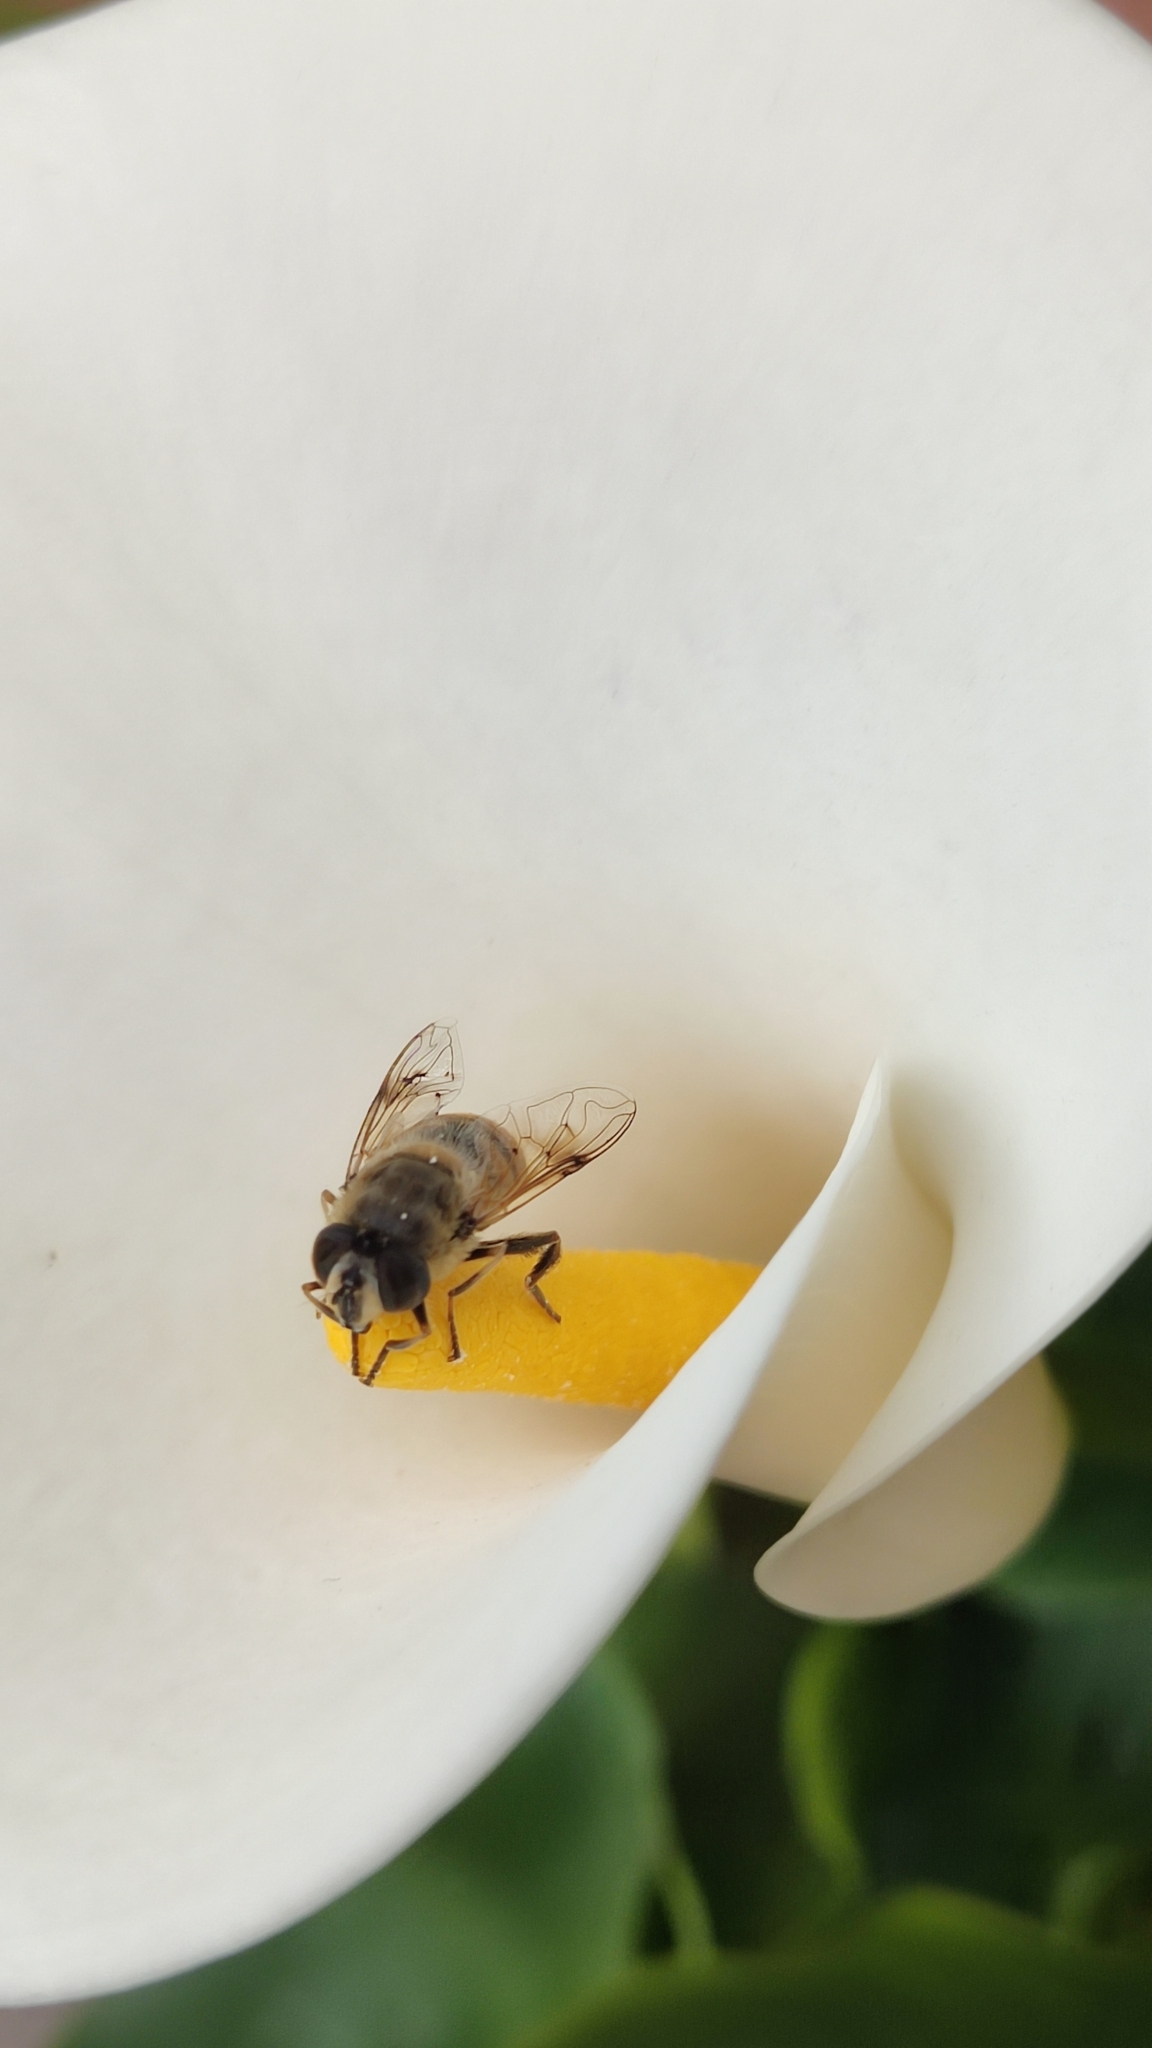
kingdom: Animalia
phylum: Arthropoda
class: Insecta
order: Diptera
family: Syrphidae
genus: Eristalis
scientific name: Eristalis tenax
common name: Drone fly
